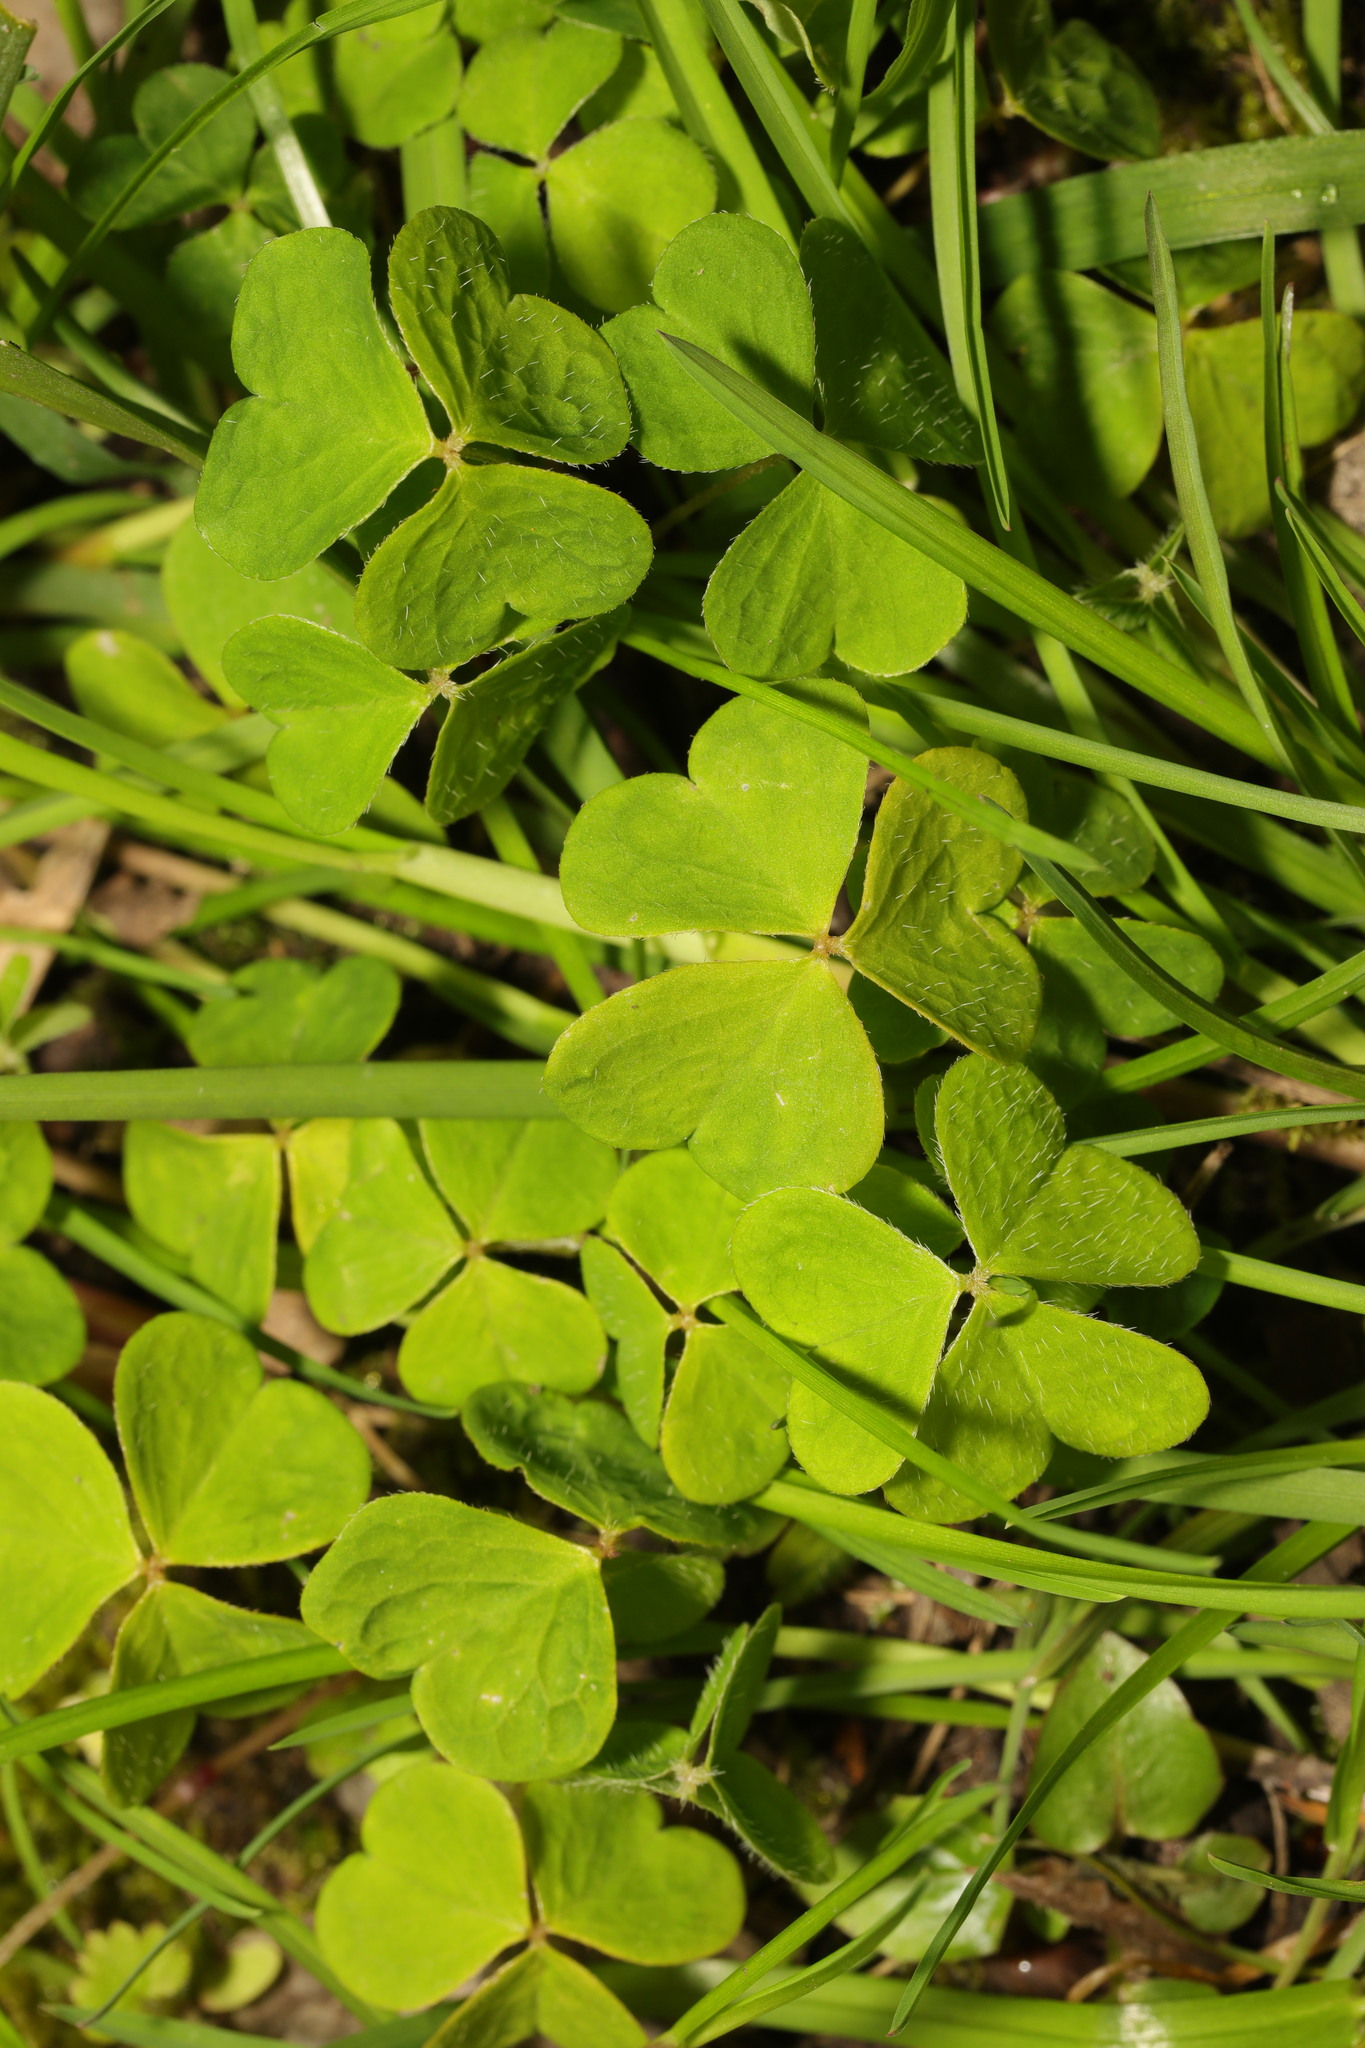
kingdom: Plantae
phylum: Tracheophyta
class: Magnoliopsida
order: Oxalidales
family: Oxalidaceae
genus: Oxalis
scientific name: Oxalis acetosella
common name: Wood-sorrel
